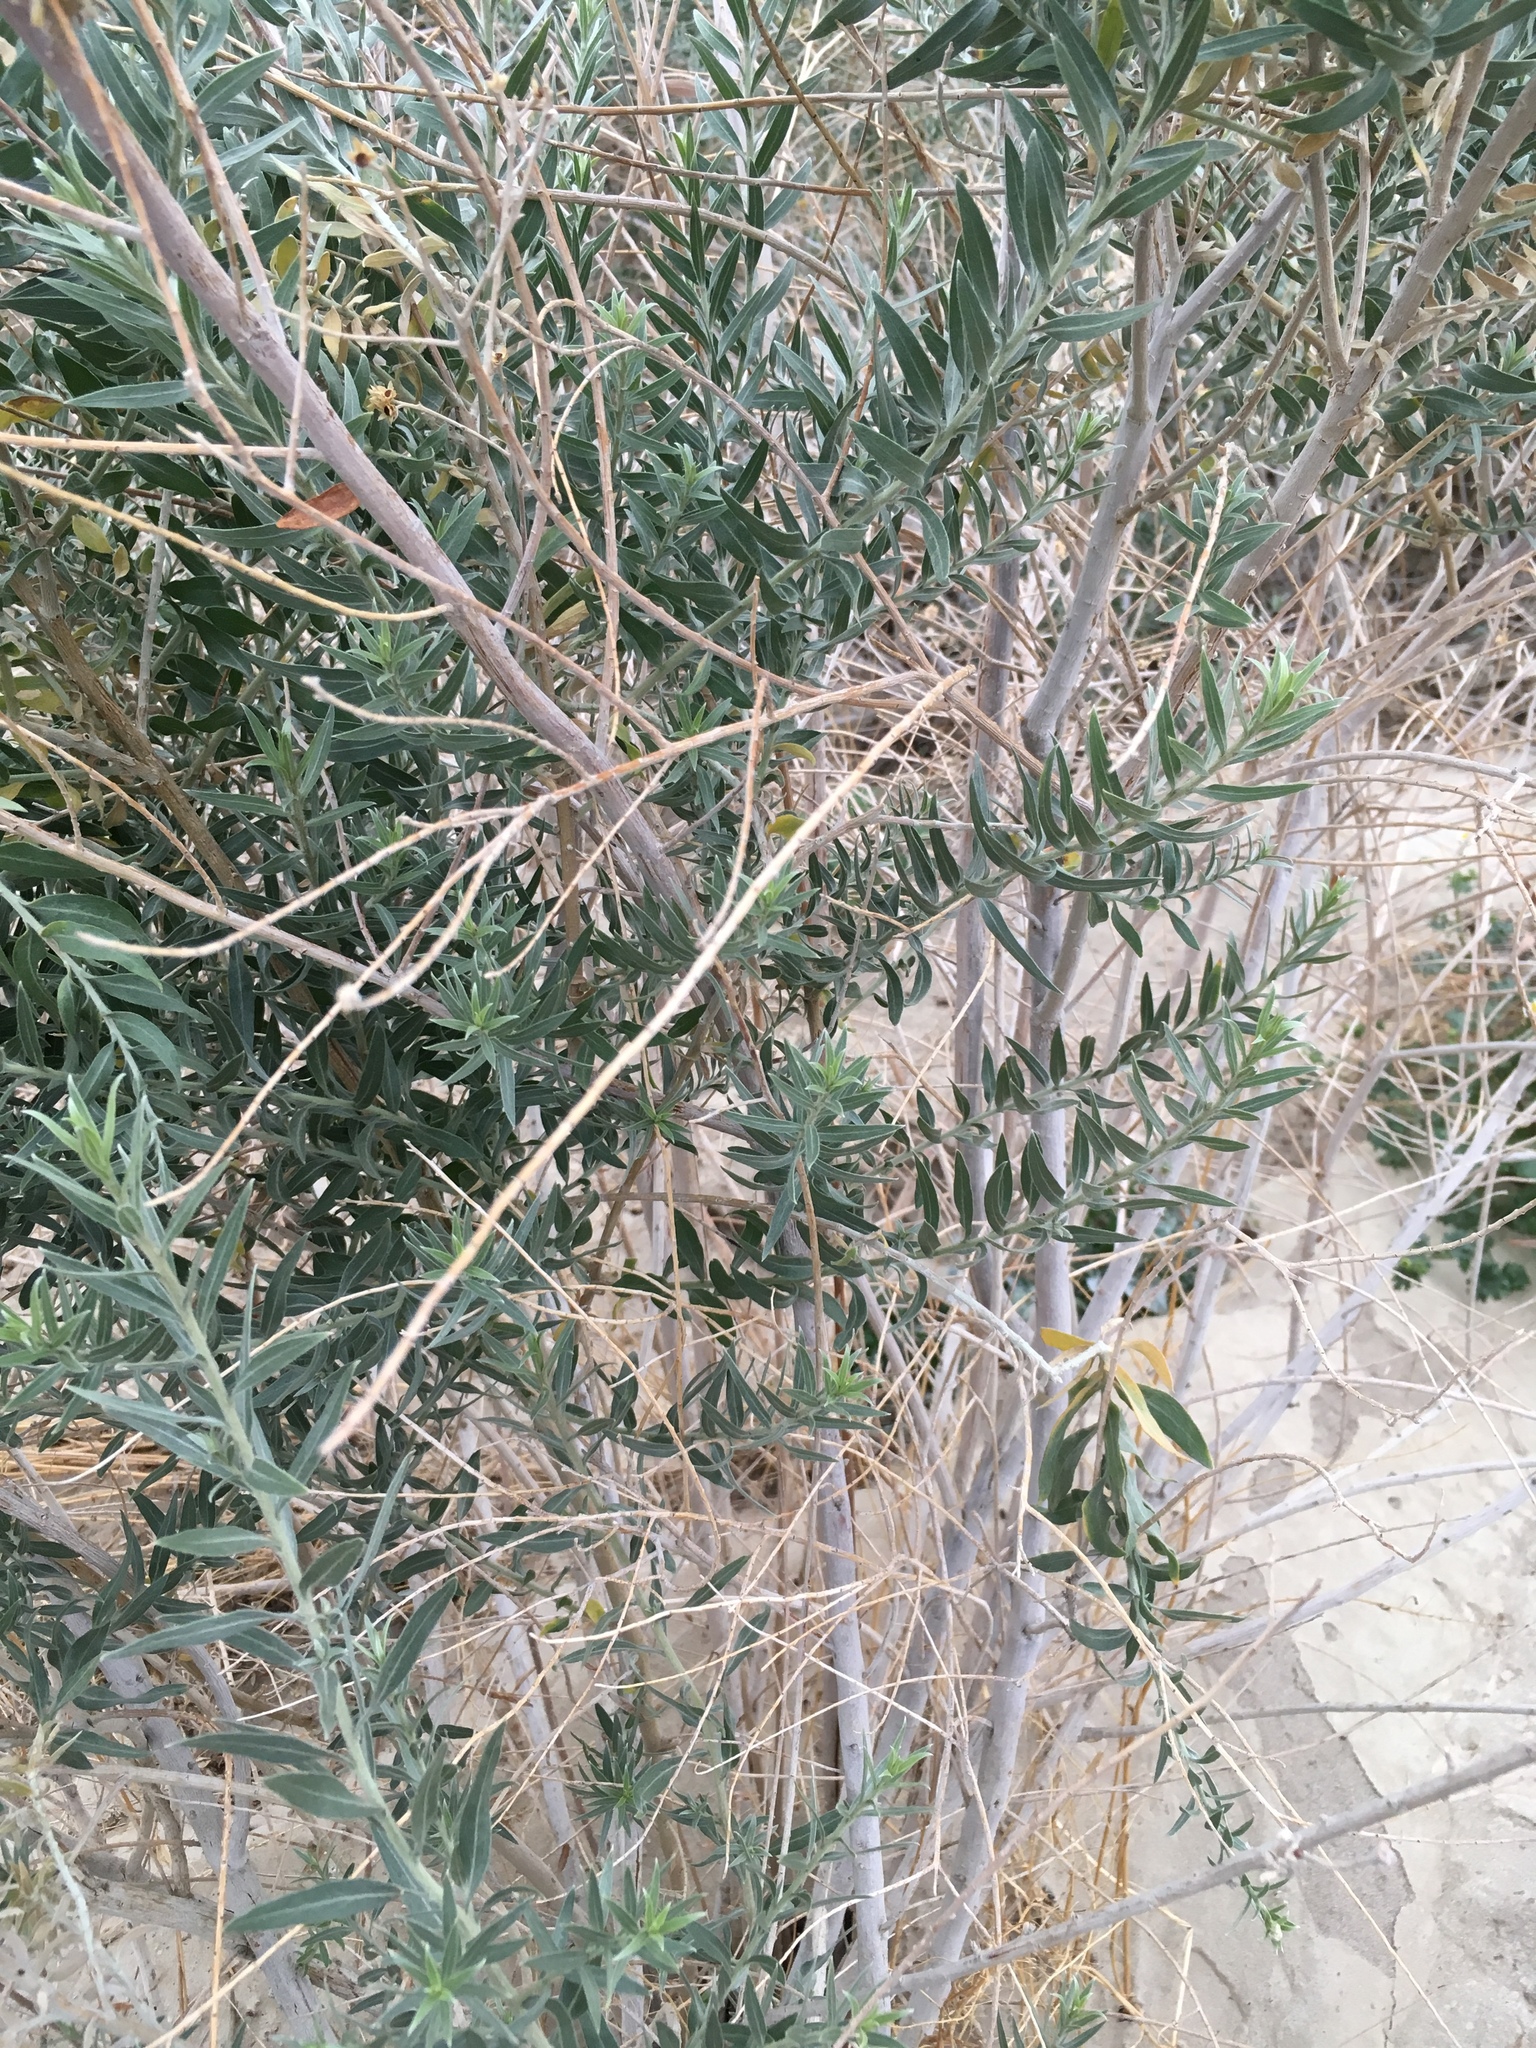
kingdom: Plantae
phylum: Tracheophyta
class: Magnoliopsida
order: Asterales
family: Asteraceae
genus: Pluchea
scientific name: Pluchea sericea
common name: Arrow-weed
